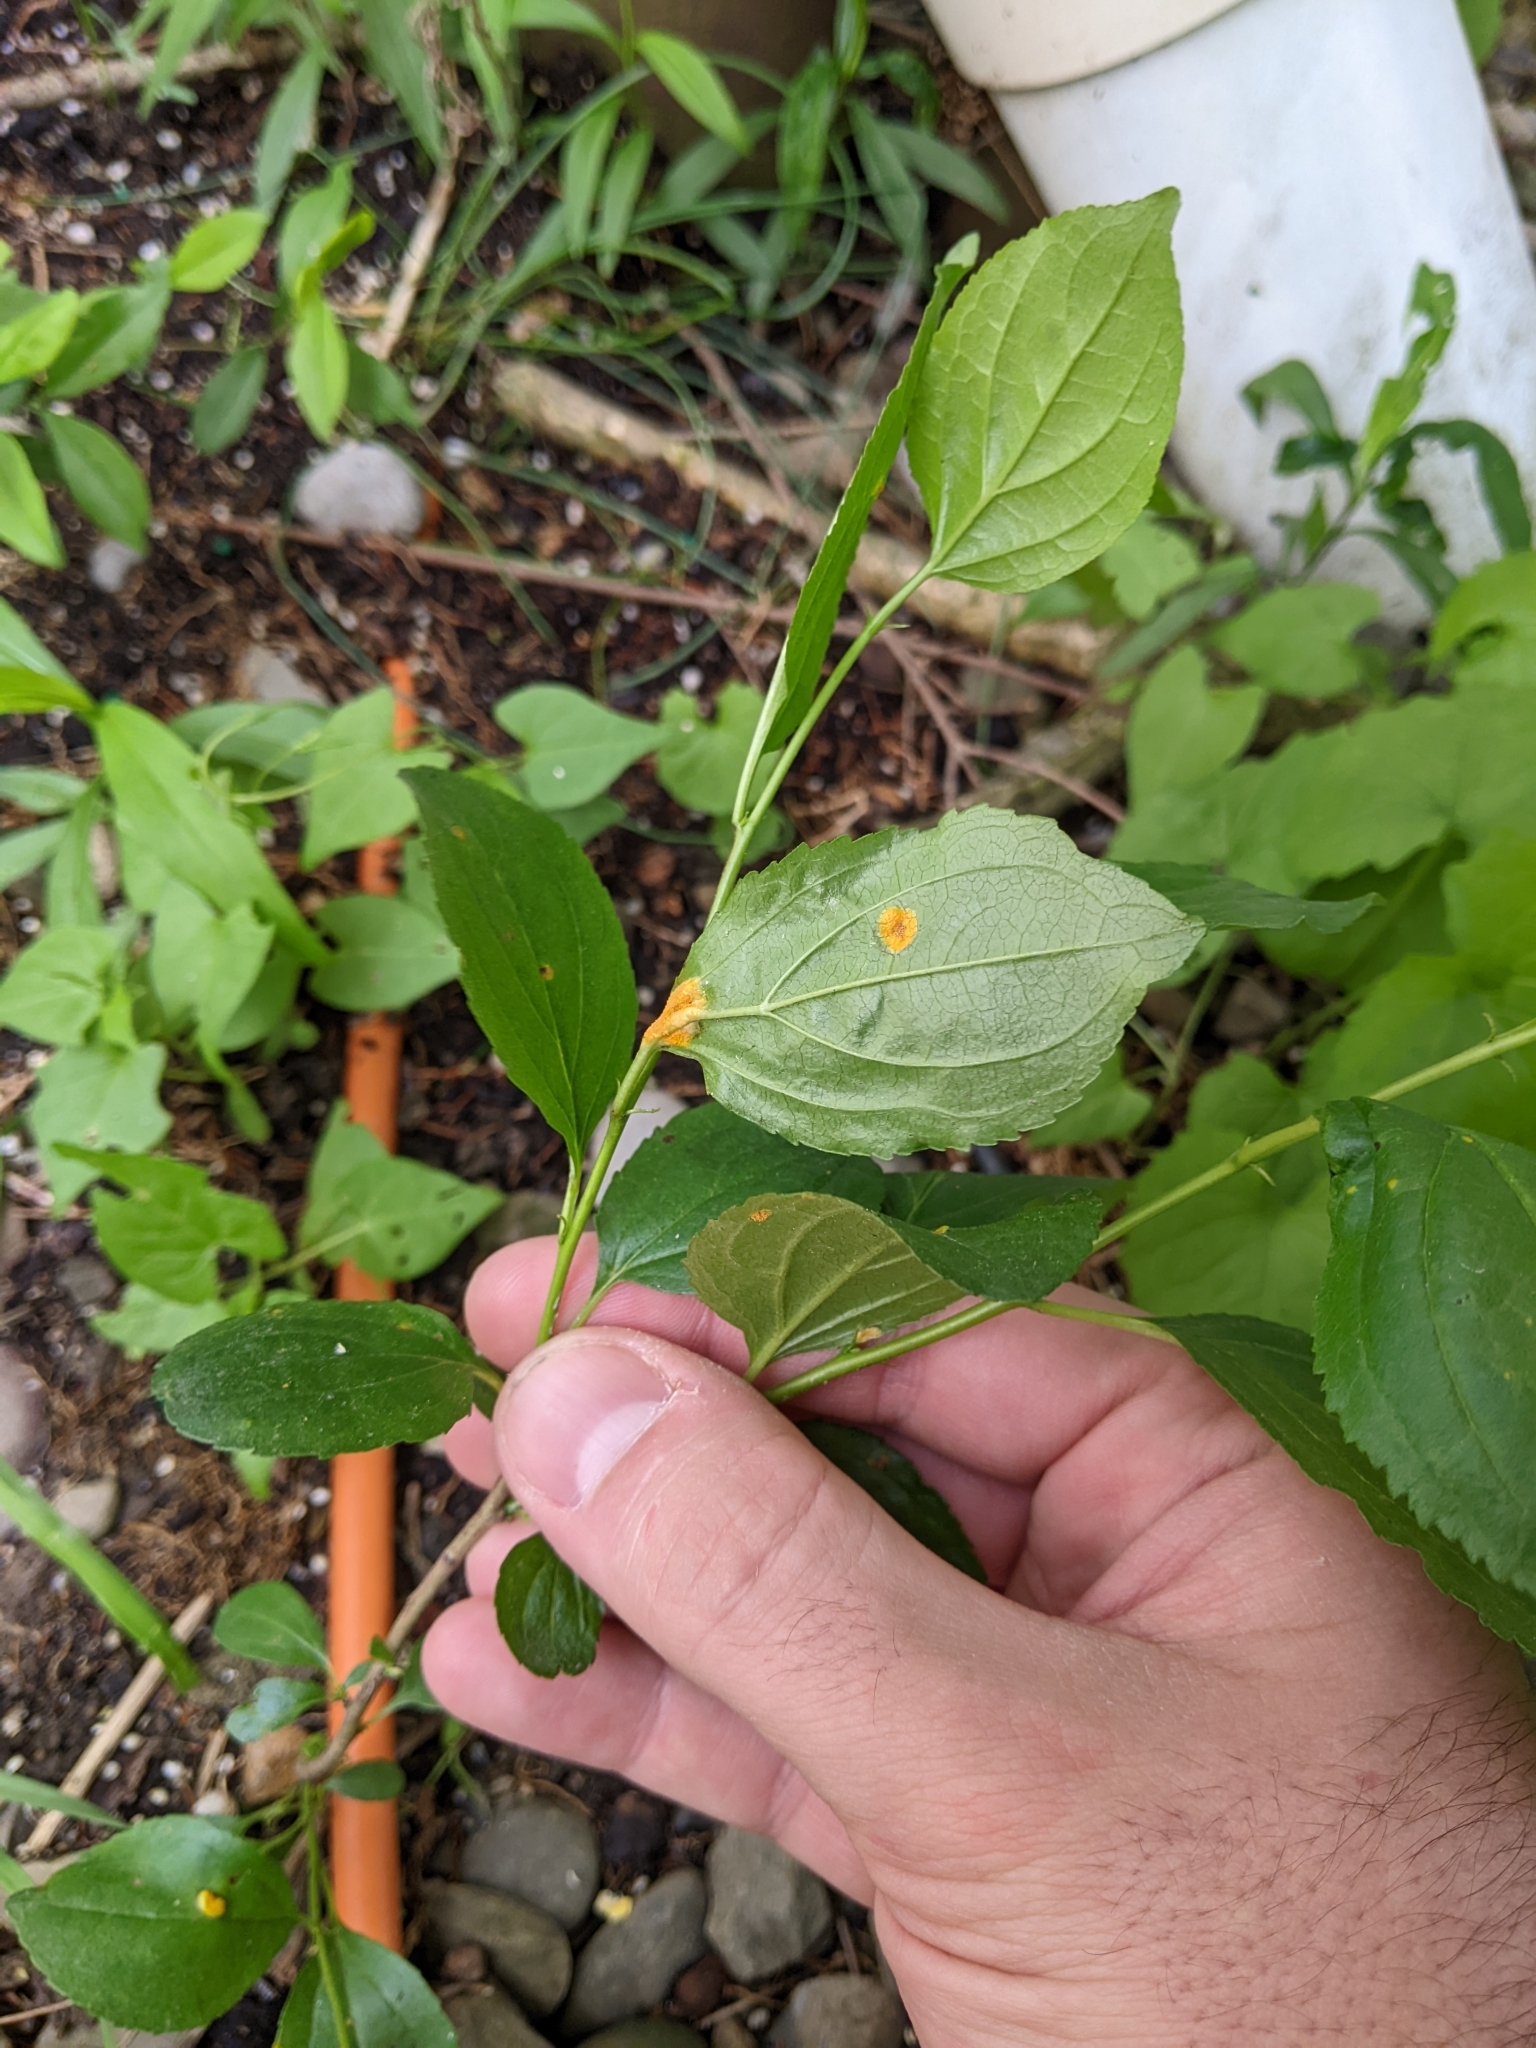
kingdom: Fungi
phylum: Basidiomycota
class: Pucciniomycetes
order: Pucciniales
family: Pucciniaceae
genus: Puccinia
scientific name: Puccinia coronata
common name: Crown rust
